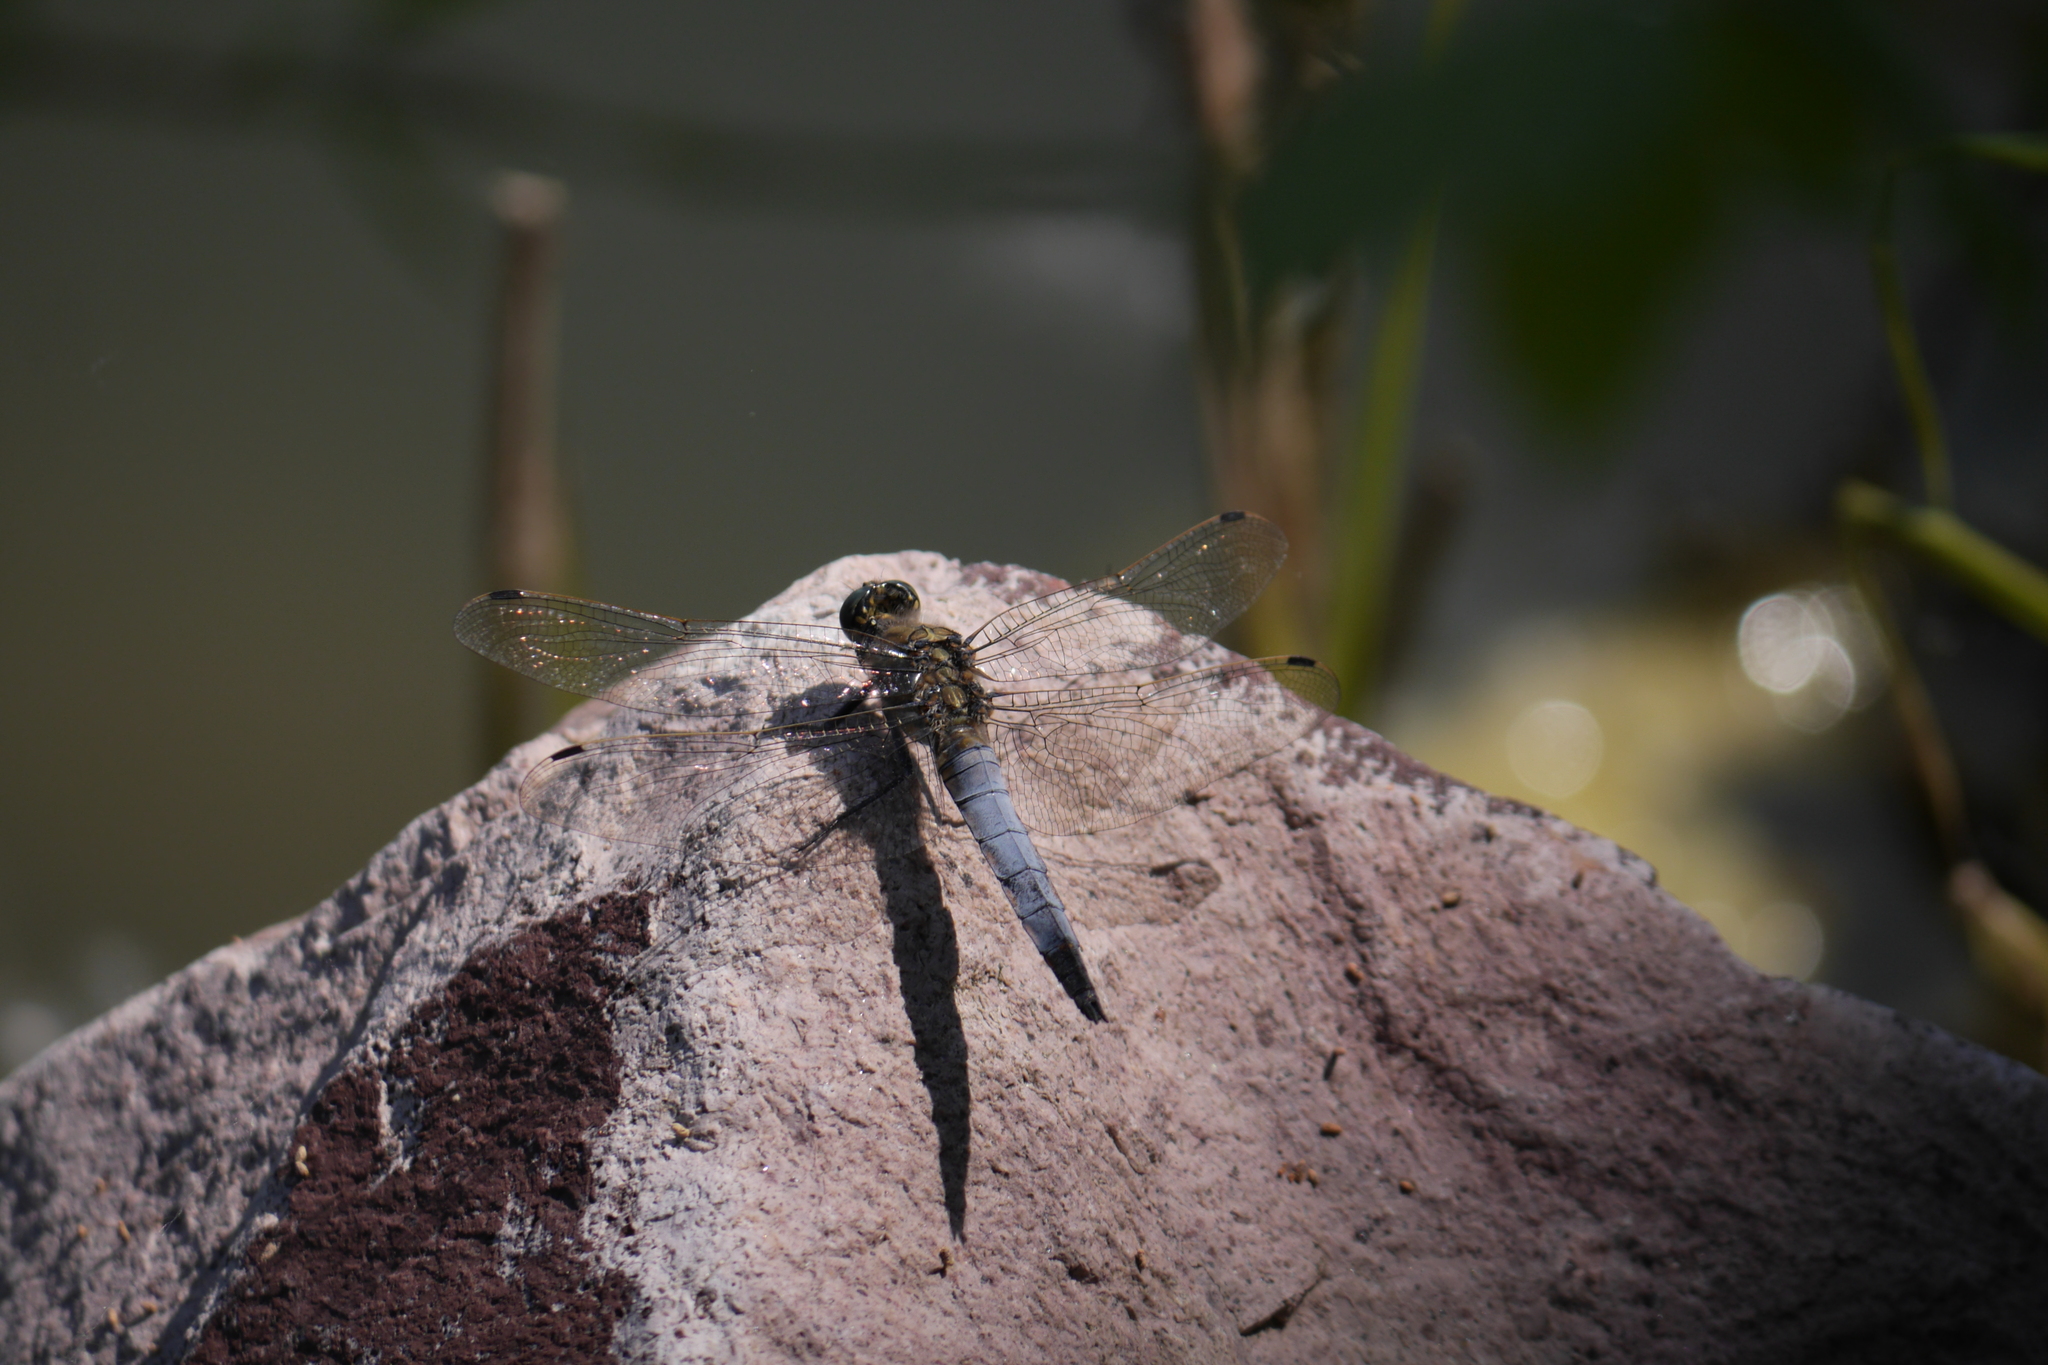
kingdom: Animalia
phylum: Arthropoda
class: Insecta
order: Odonata
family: Libellulidae
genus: Orthetrum
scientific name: Orthetrum cancellatum
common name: Black-tailed skimmer
